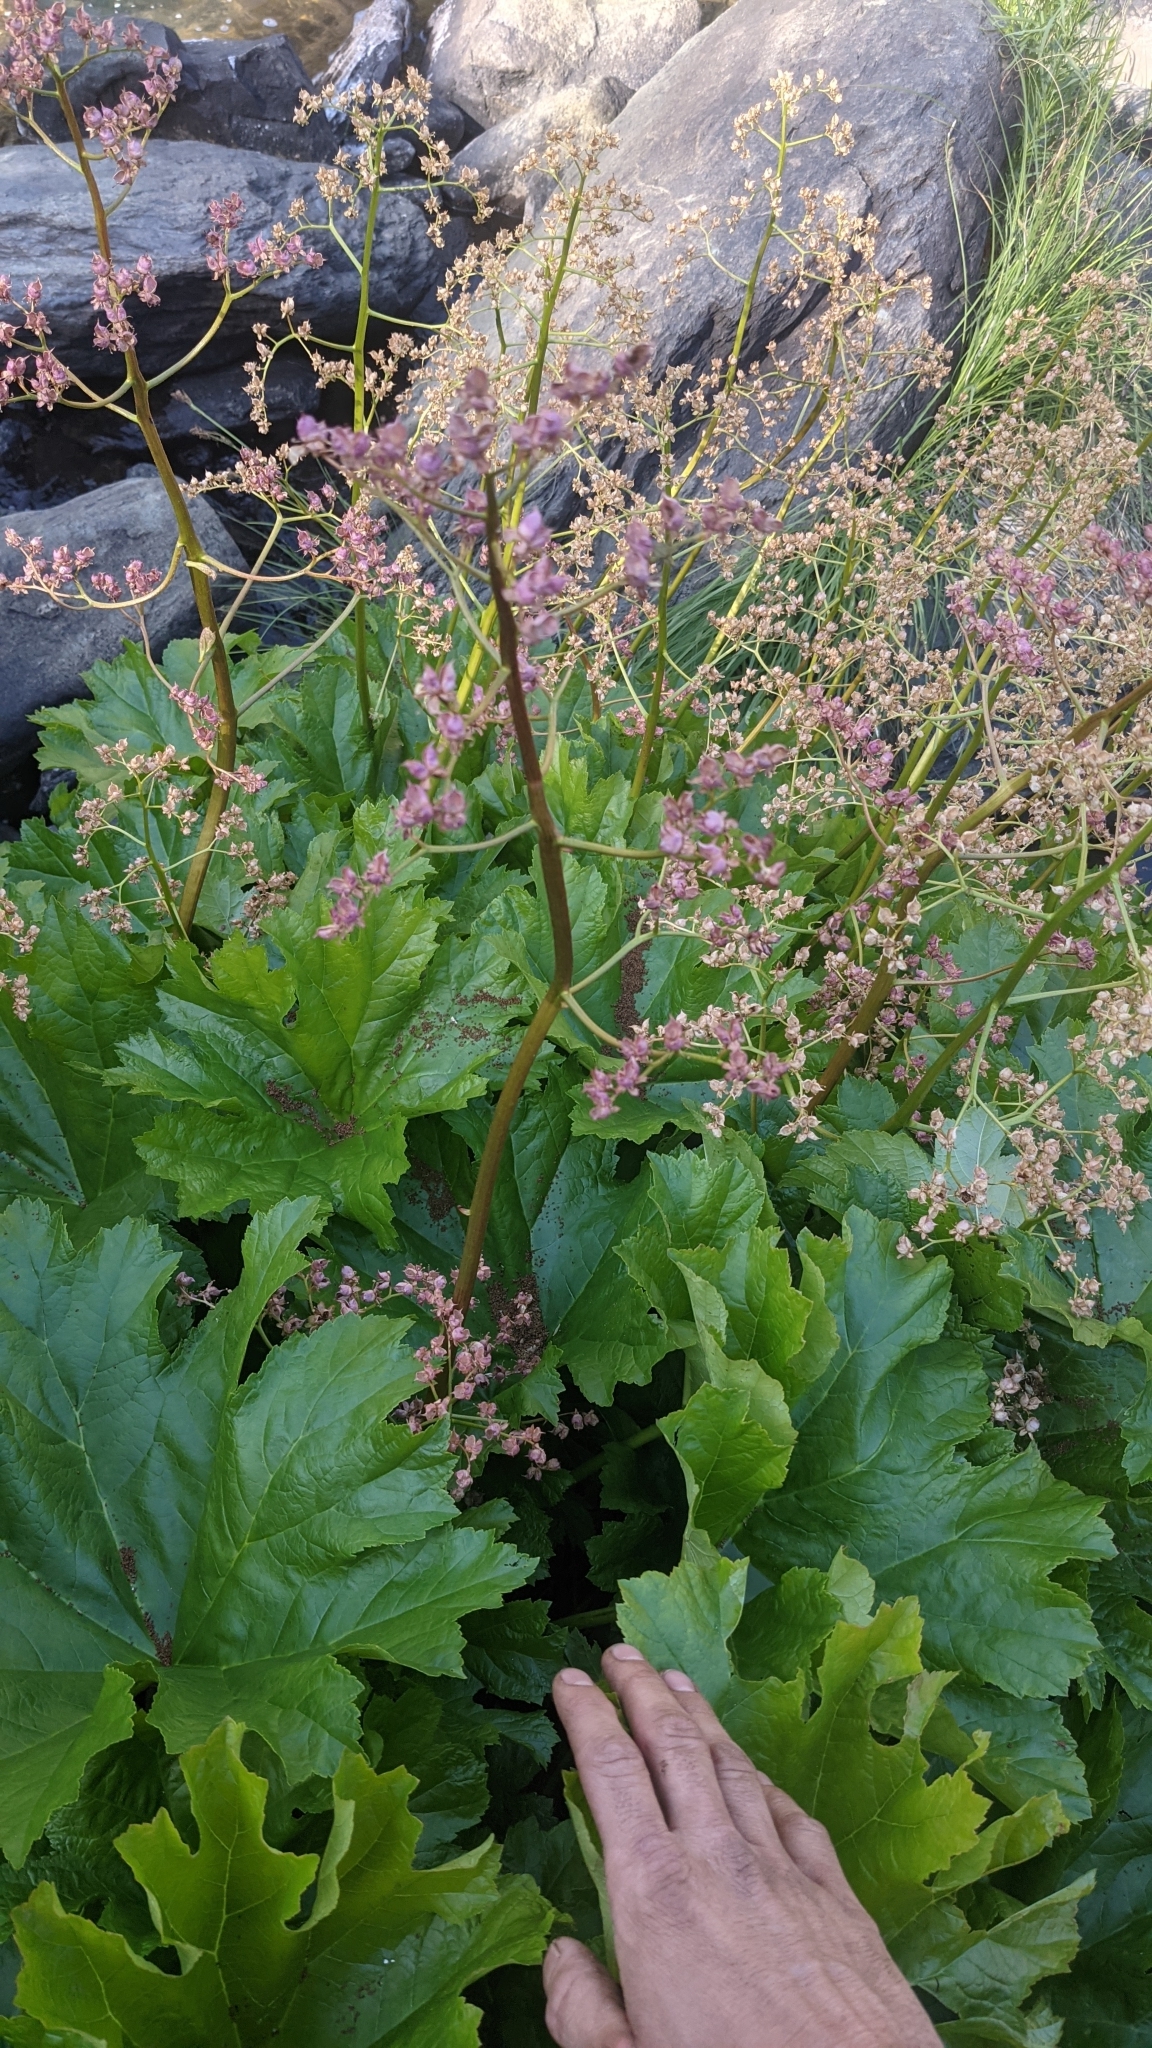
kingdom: Plantae
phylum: Tracheophyta
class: Magnoliopsida
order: Saxifragales
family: Saxifragaceae
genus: Darmera
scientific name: Darmera peltata
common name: Indian-rhubarb
